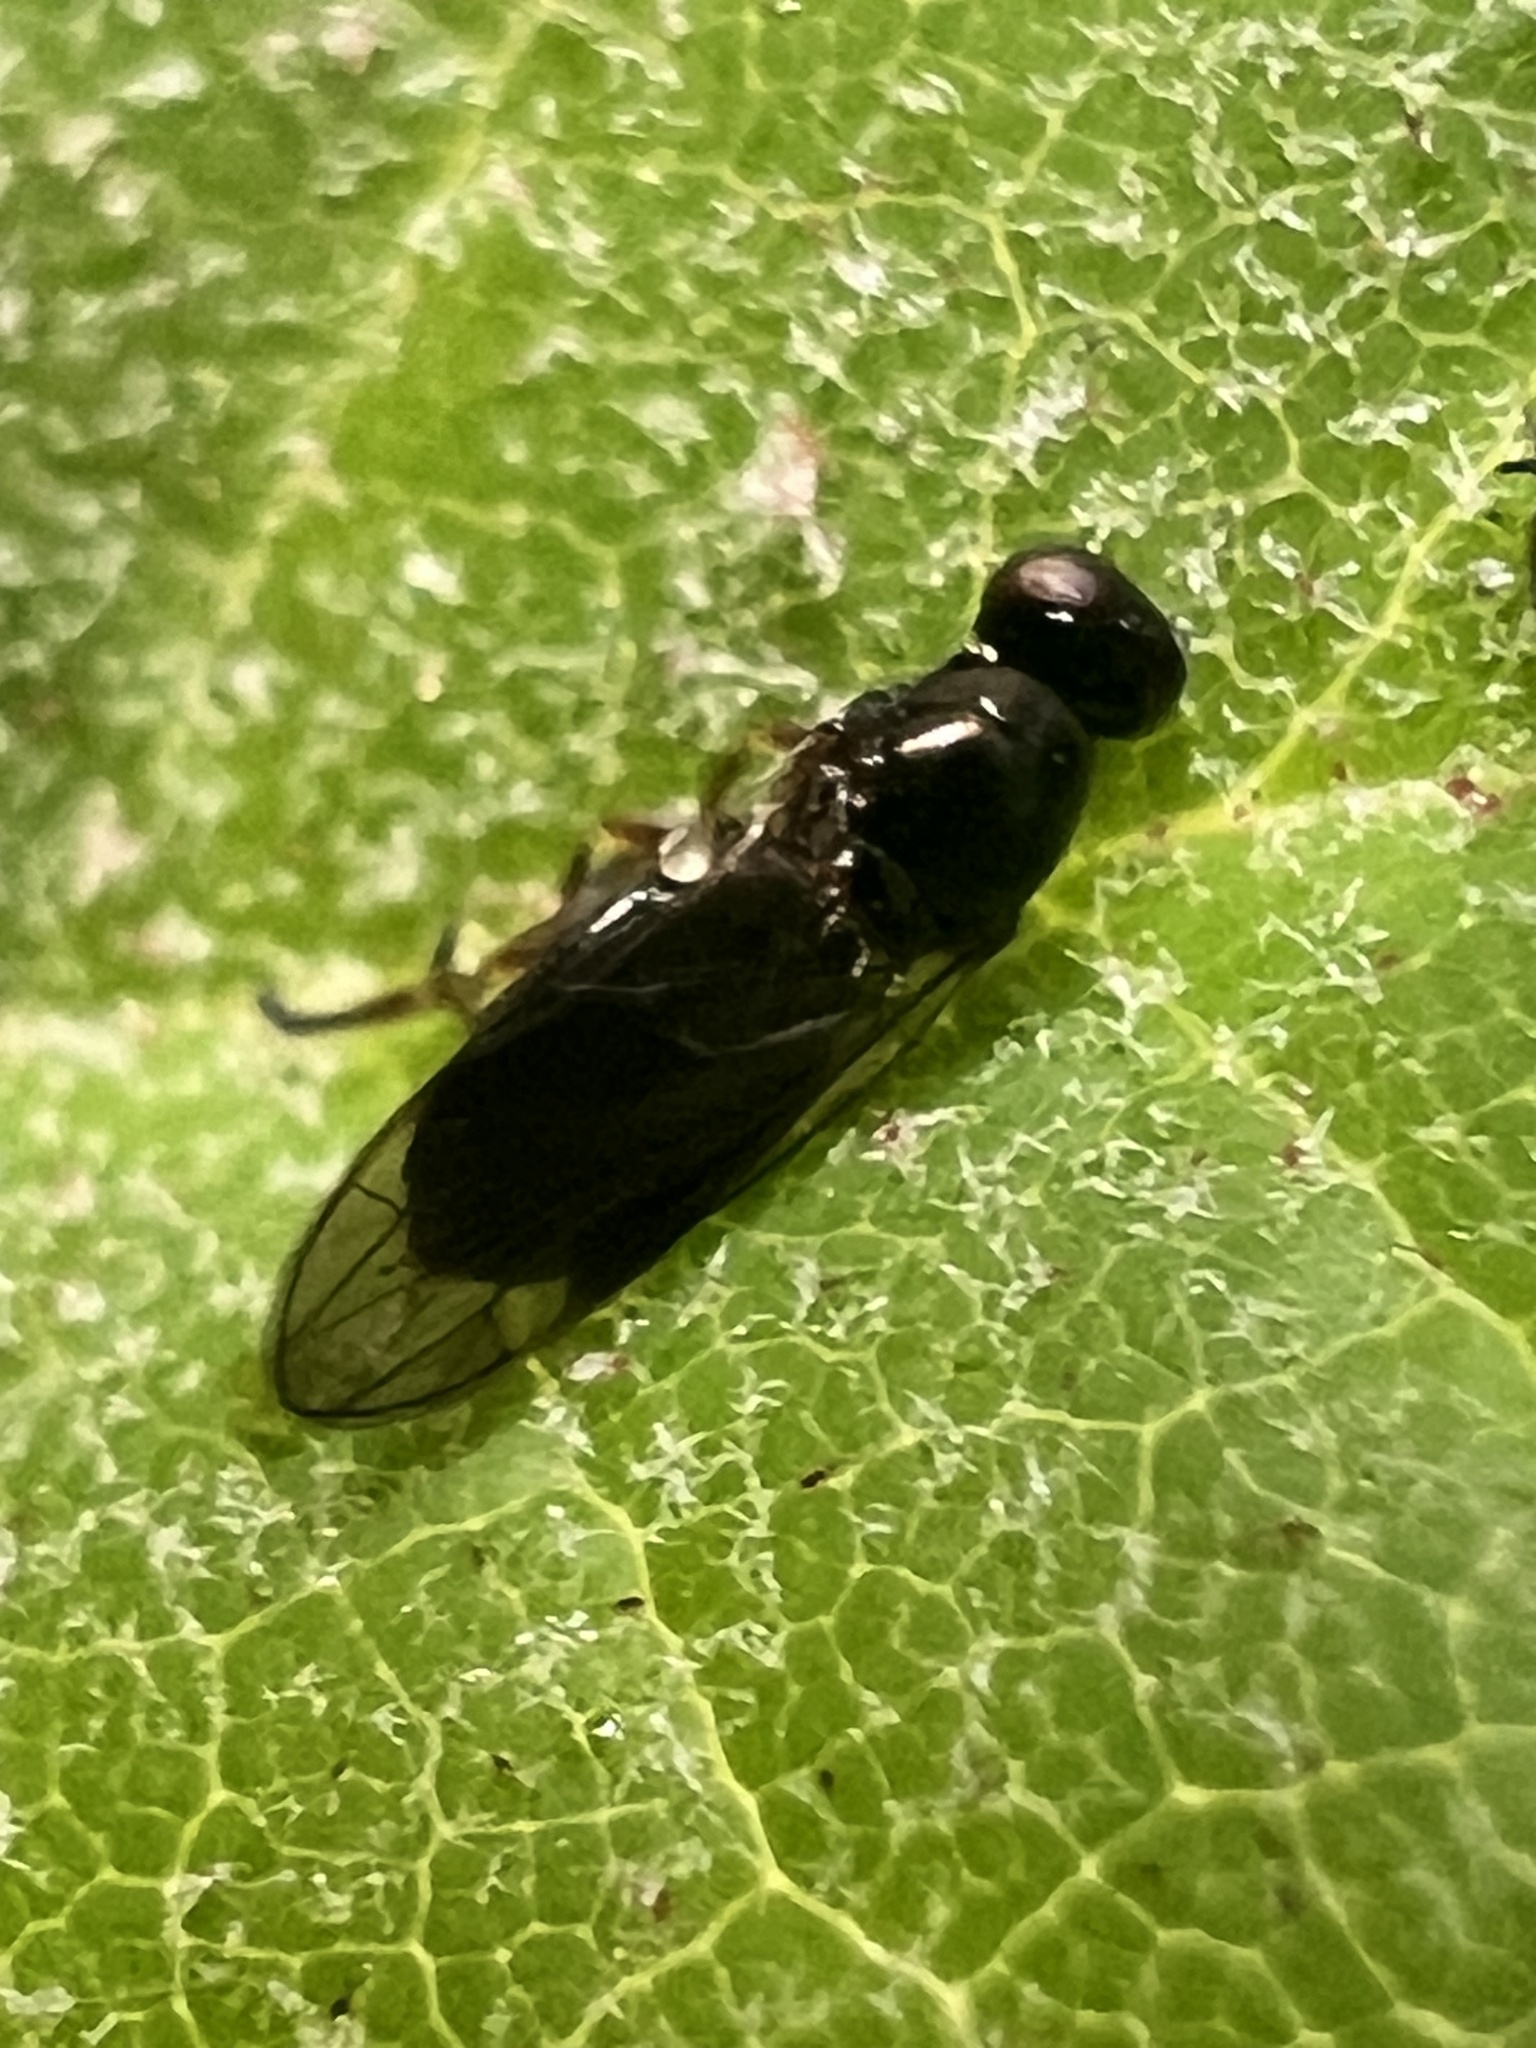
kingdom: Animalia
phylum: Arthropoda
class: Insecta
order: Diptera
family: Stratiomyidae
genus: Zealandoberis
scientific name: Zealandoberis violacea
